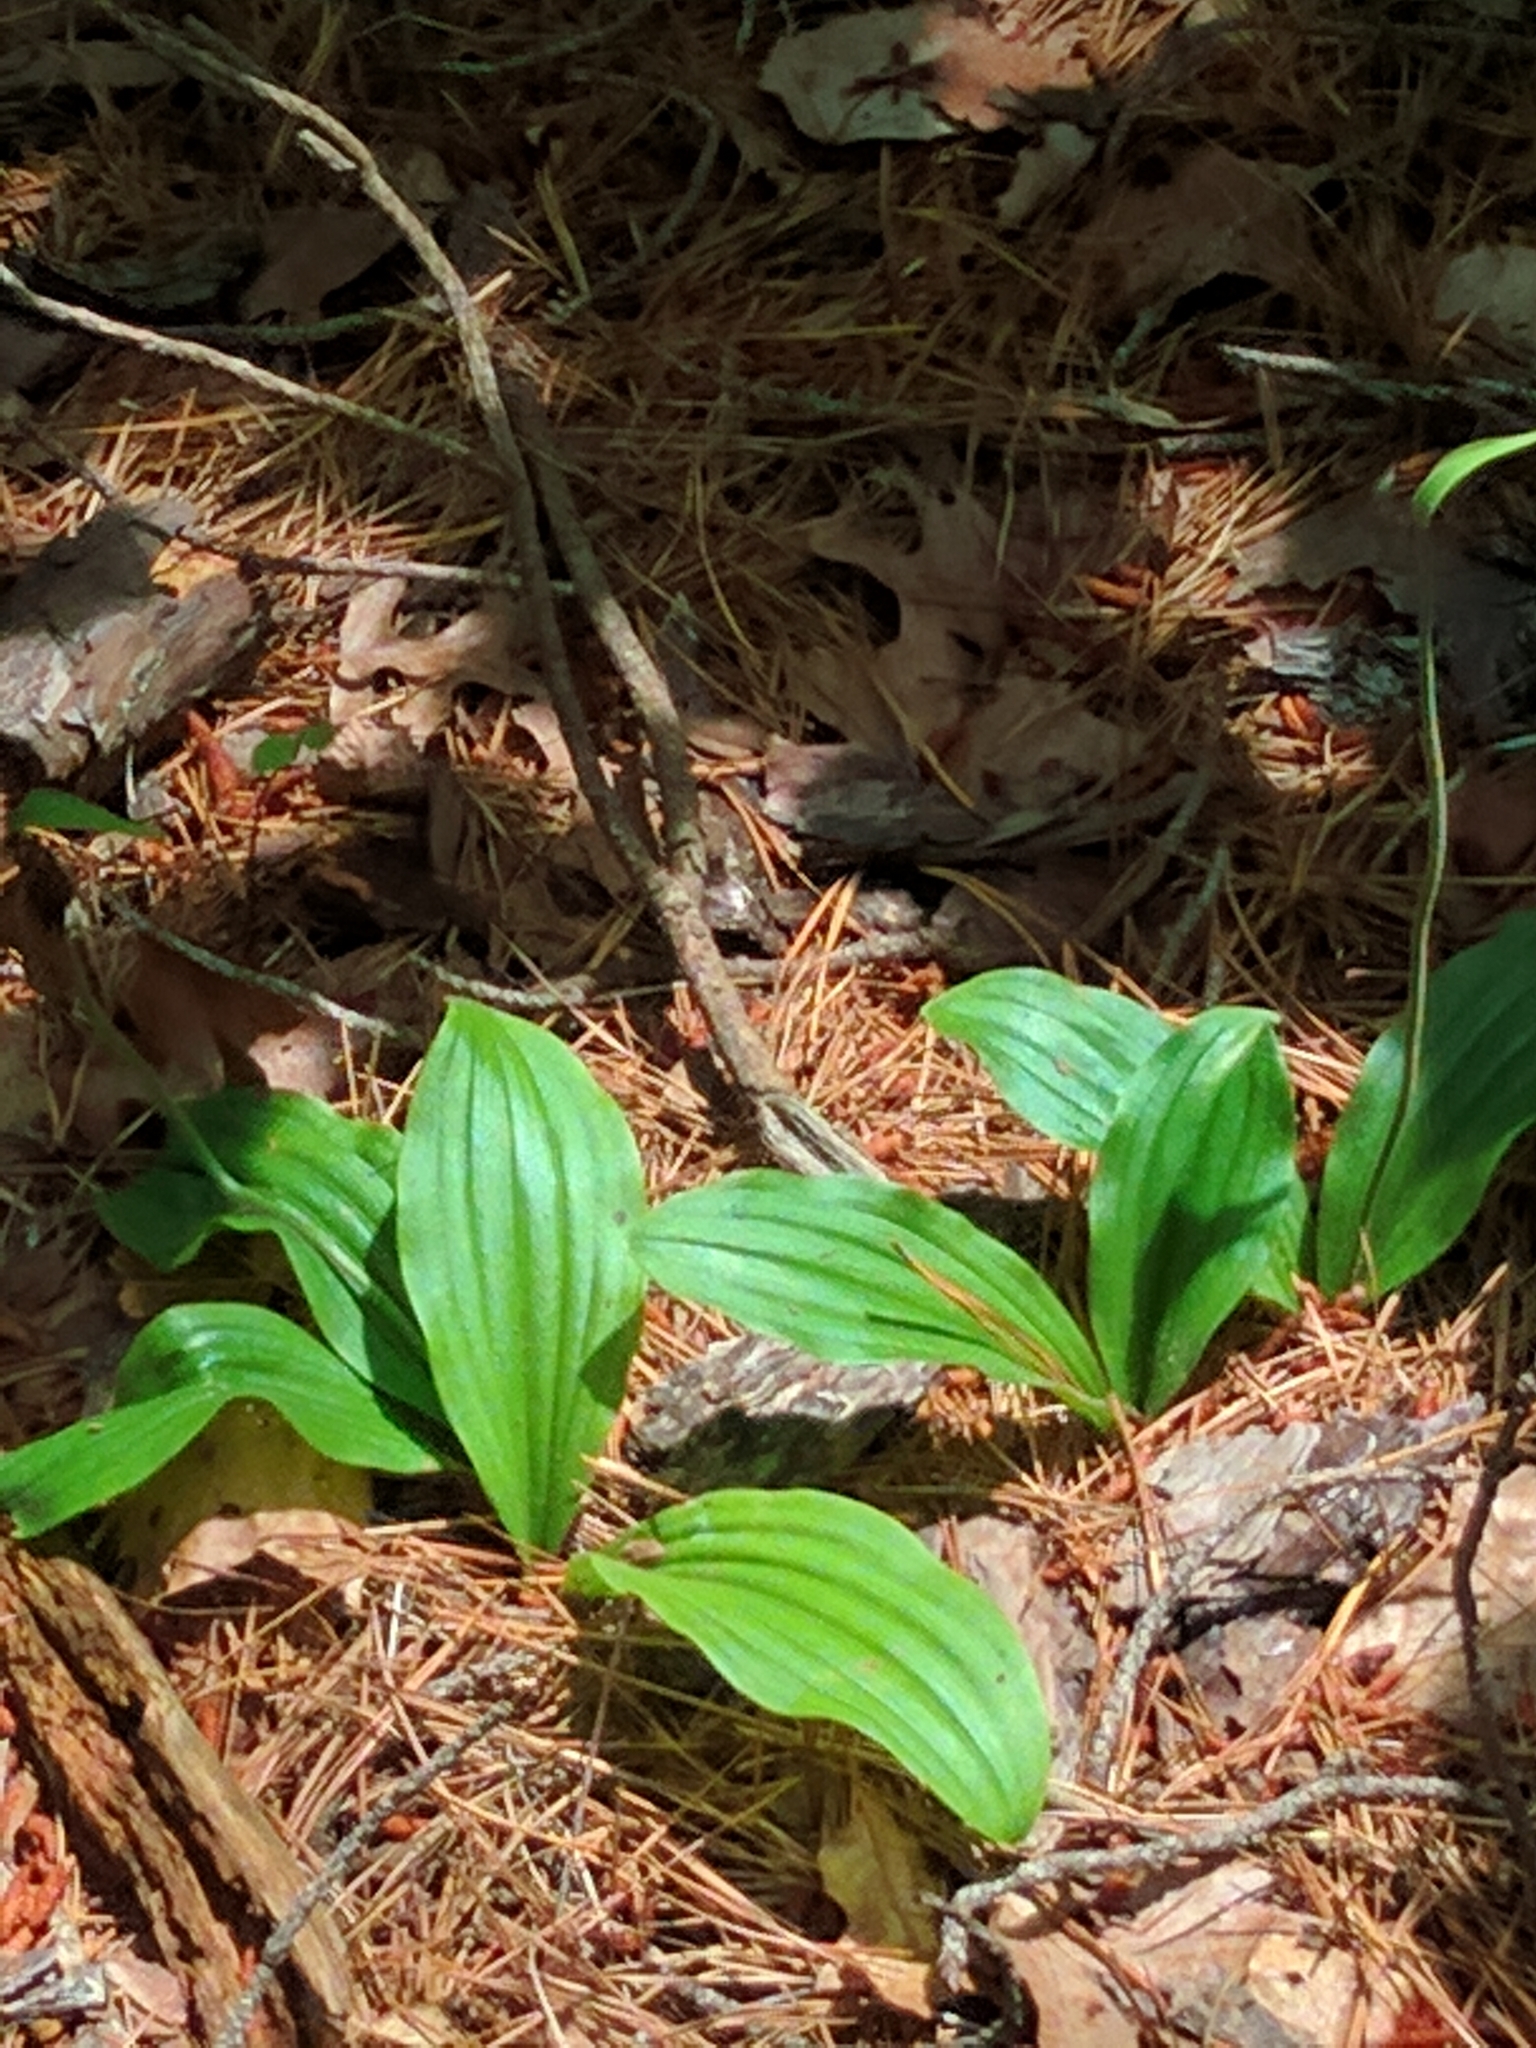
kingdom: Plantae
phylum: Tracheophyta
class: Liliopsida
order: Asparagales
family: Orchidaceae
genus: Cypripedium
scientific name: Cypripedium acaule
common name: Pink lady's-slipper
